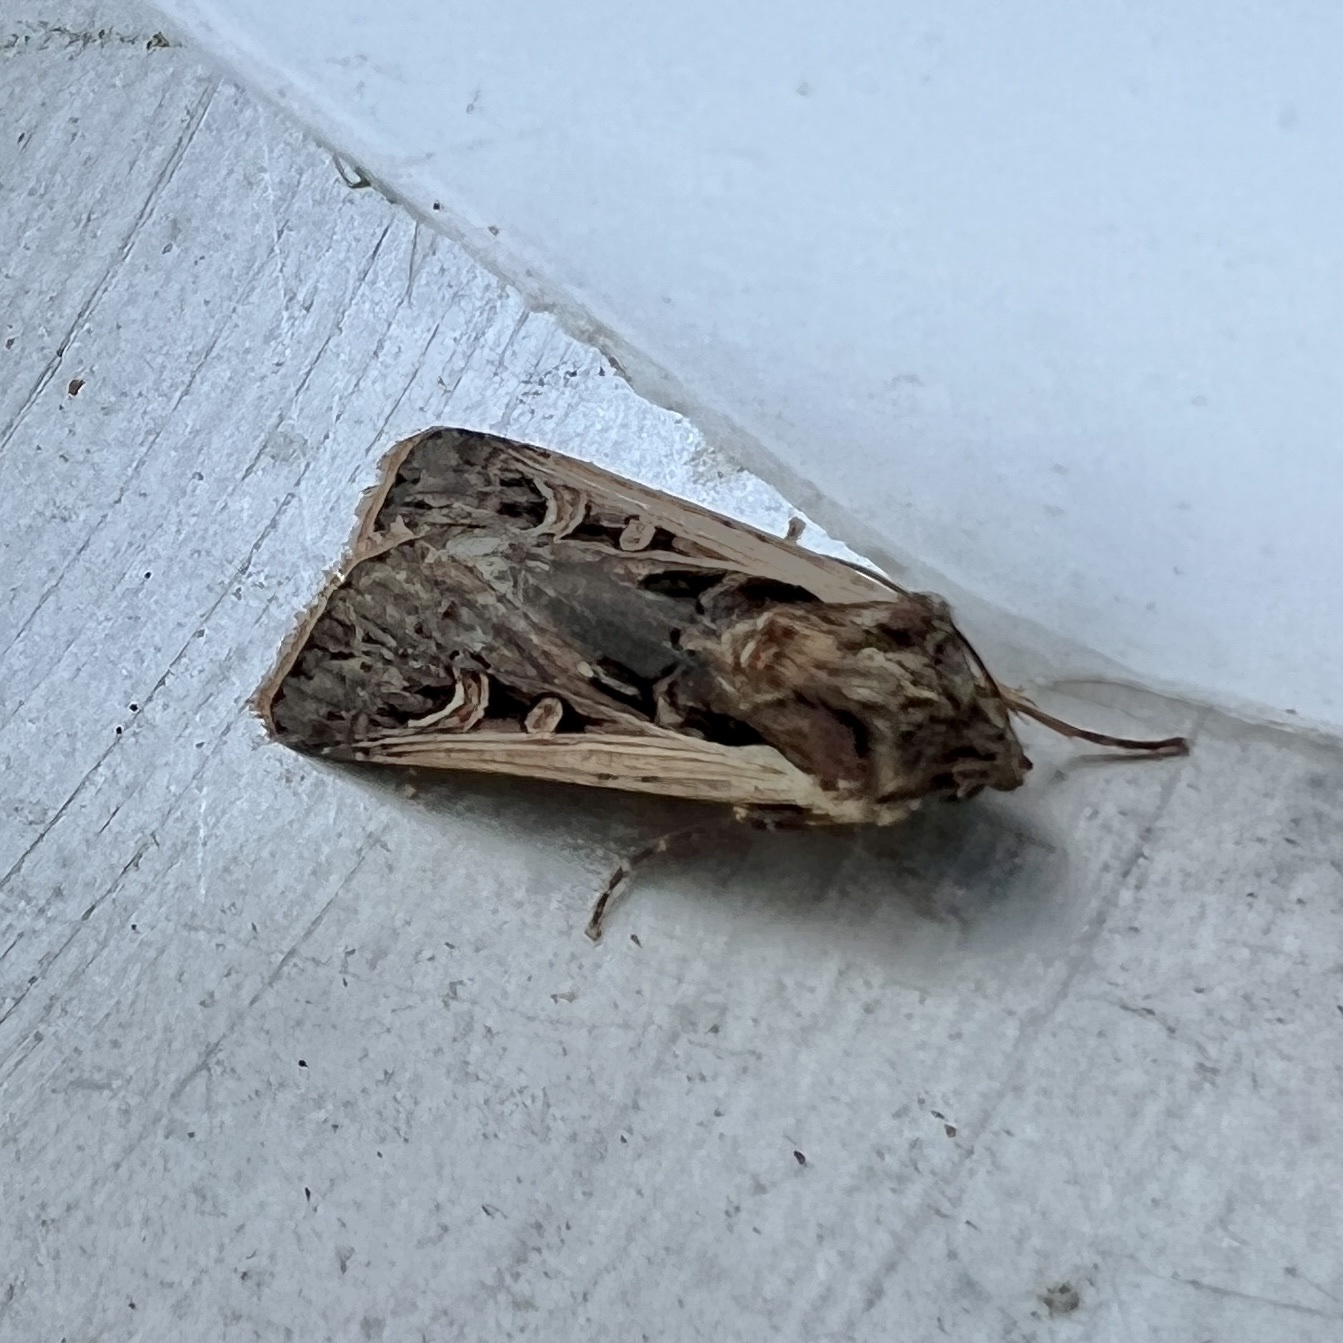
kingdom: Animalia
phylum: Arthropoda
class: Insecta
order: Lepidoptera
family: Noctuidae
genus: Striacosta
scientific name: Striacosta albicosta
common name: Western bean cutworm moth
